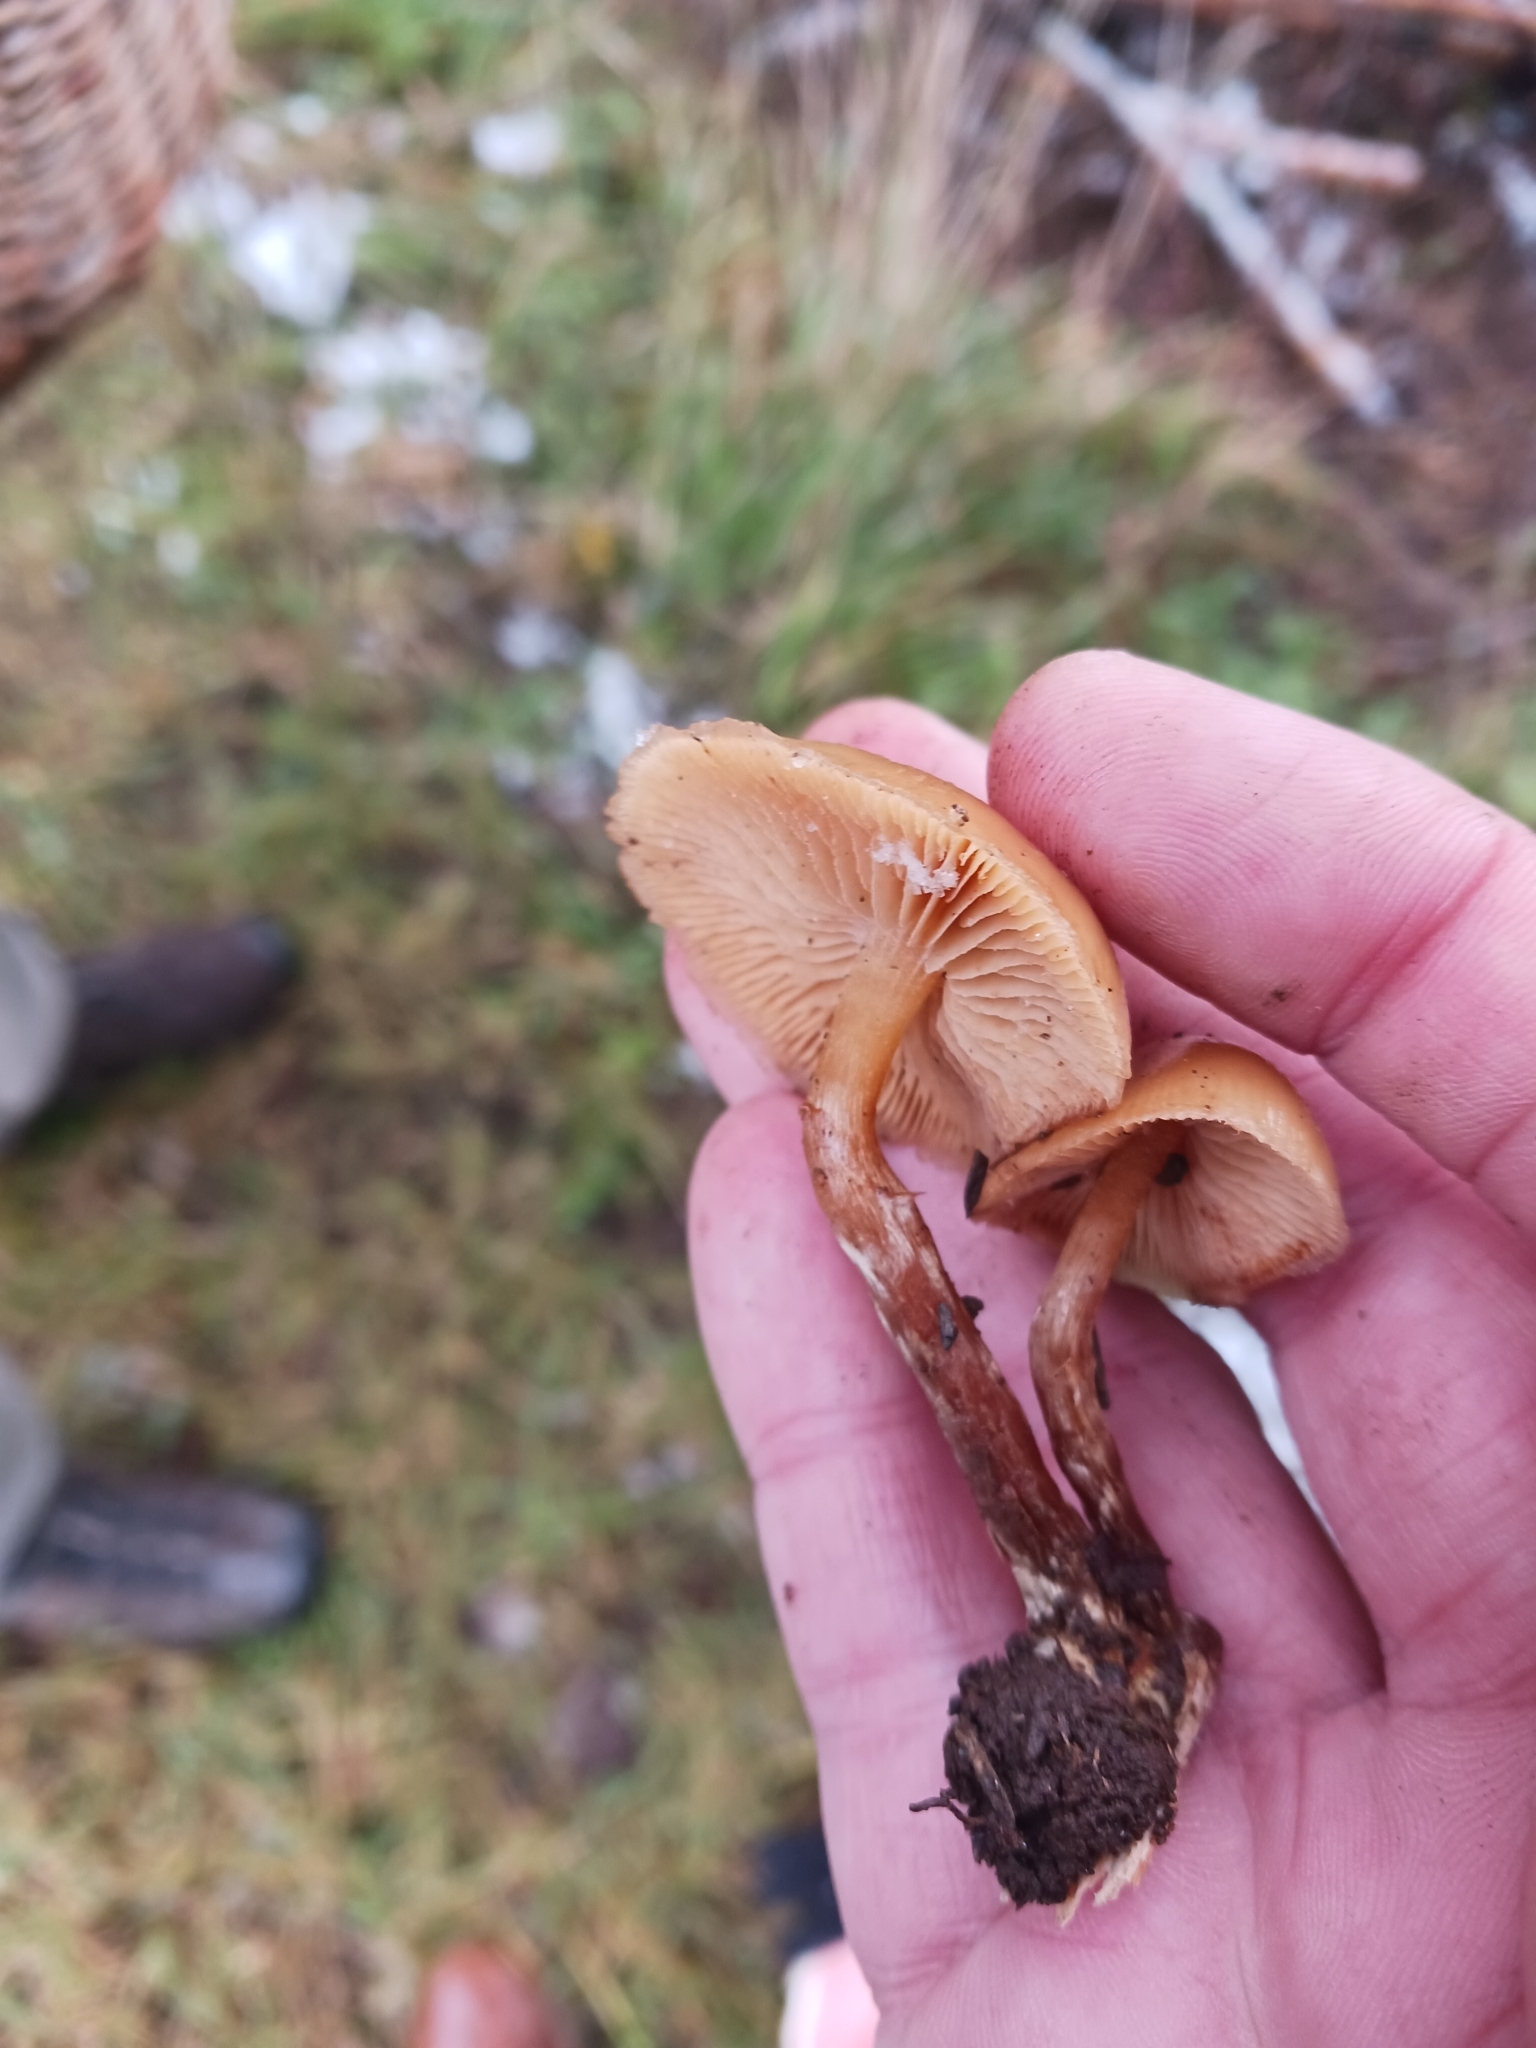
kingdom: Fungi
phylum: Basidiomycota
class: Agaricomycetes
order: Agaricales
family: Hymenogastraceae
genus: Galerina
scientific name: Galerina sideroides
